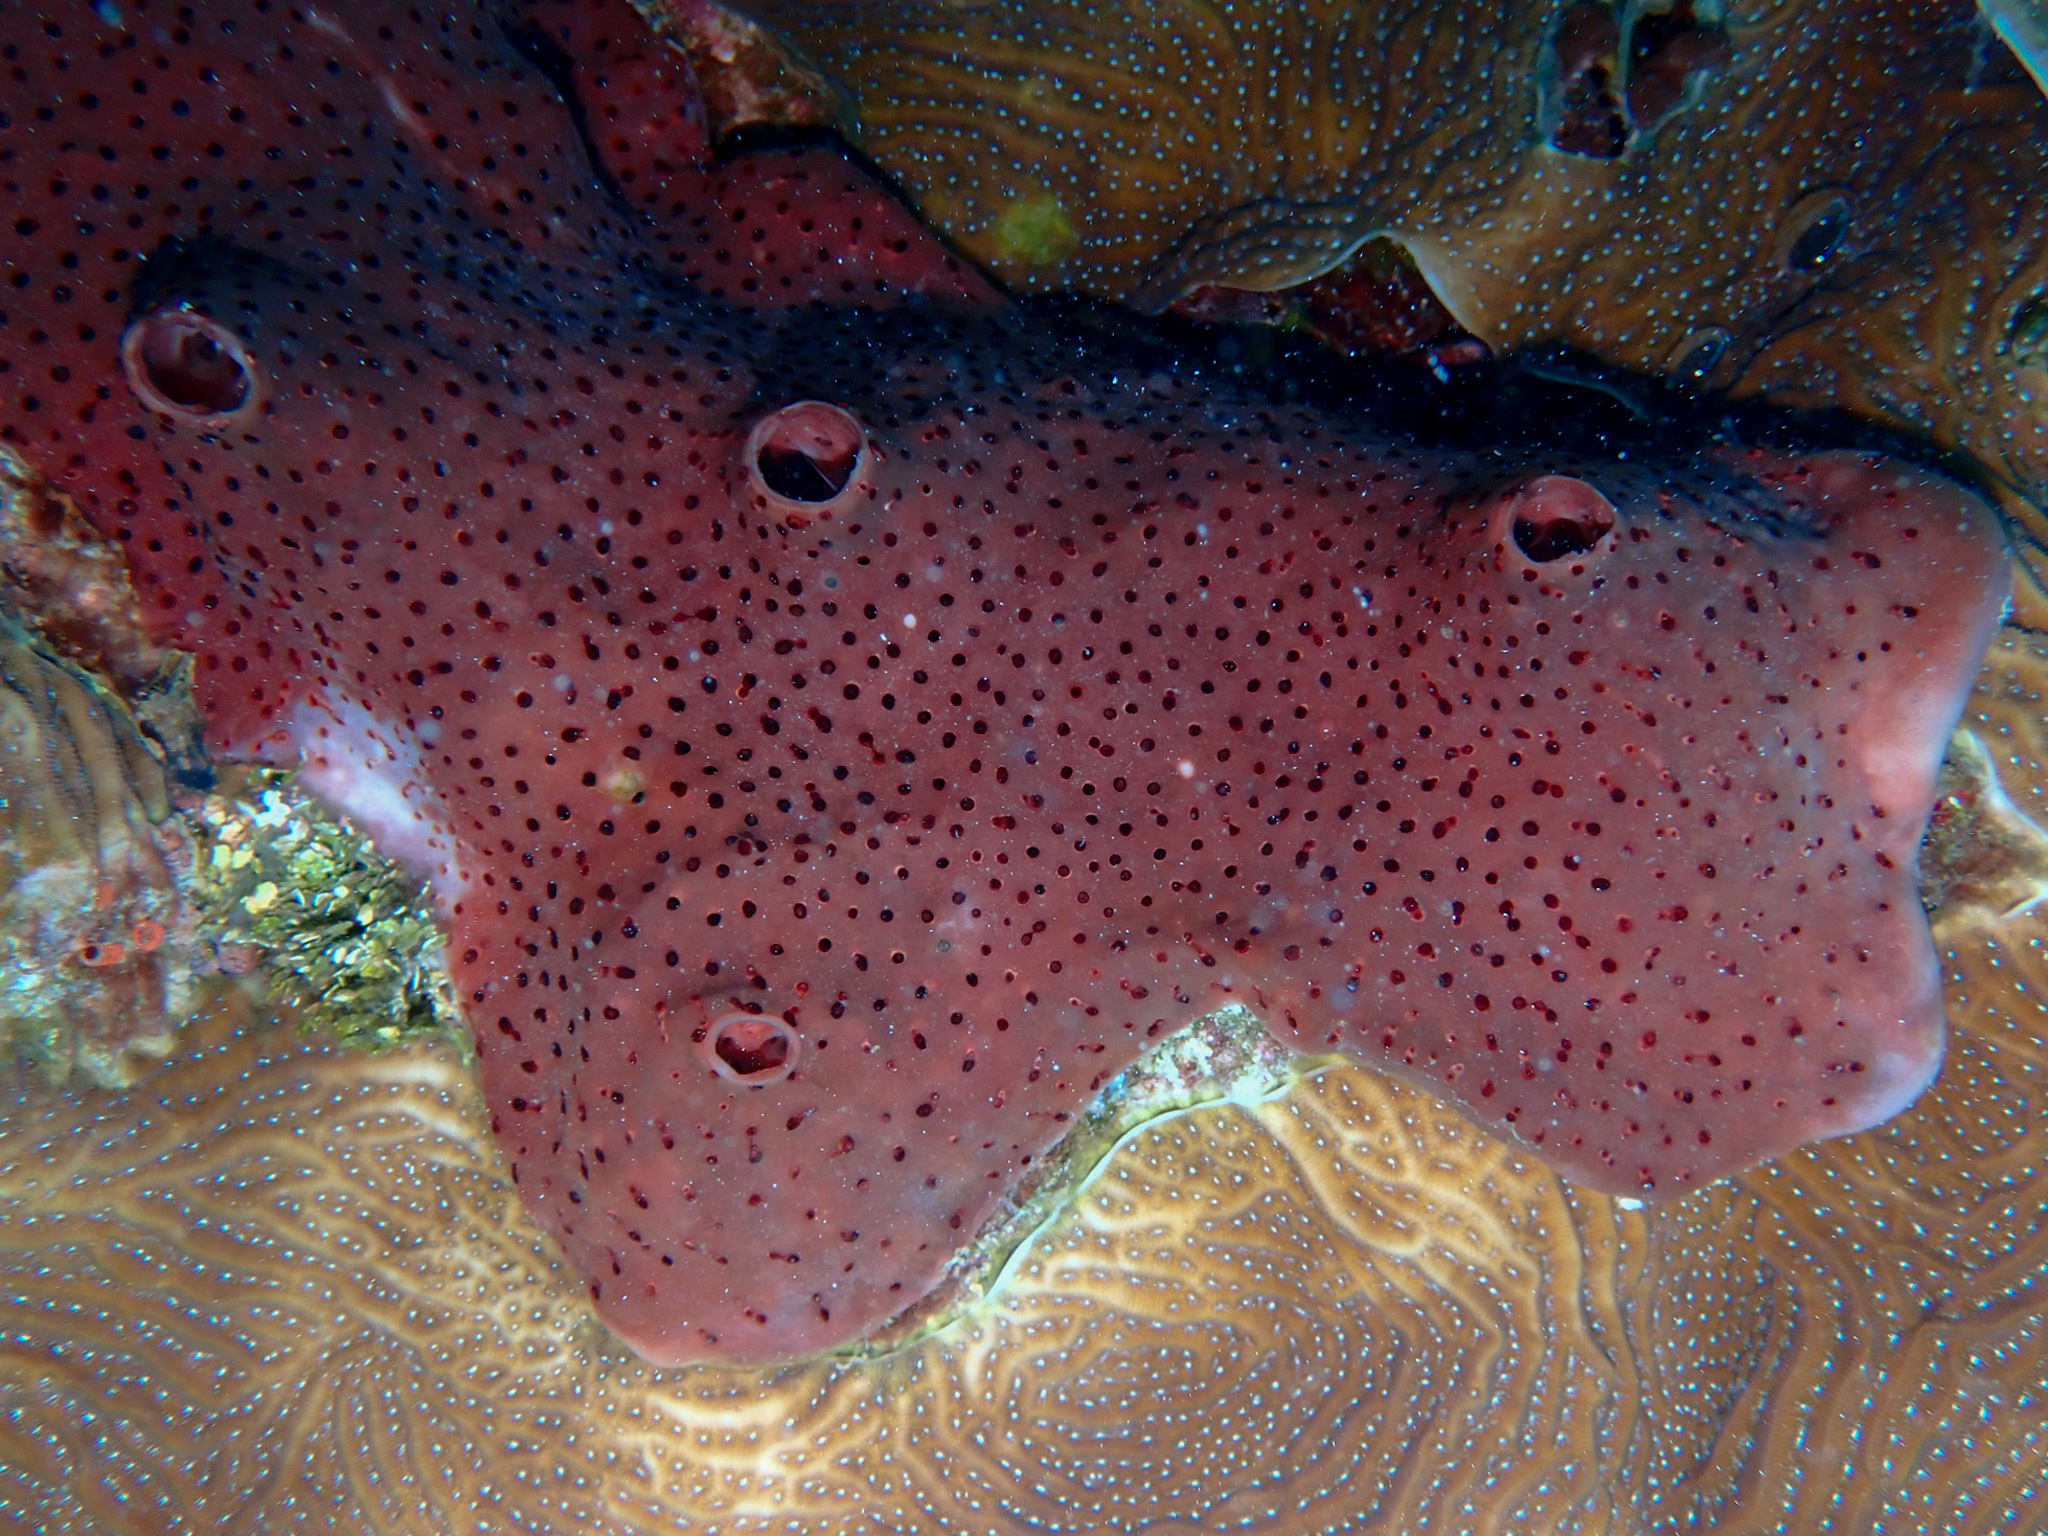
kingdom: Animalia
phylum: Porifera
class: Demospongiae
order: Scopalinida
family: Scopalinidae
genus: Svenzea
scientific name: Svenzea zeai
